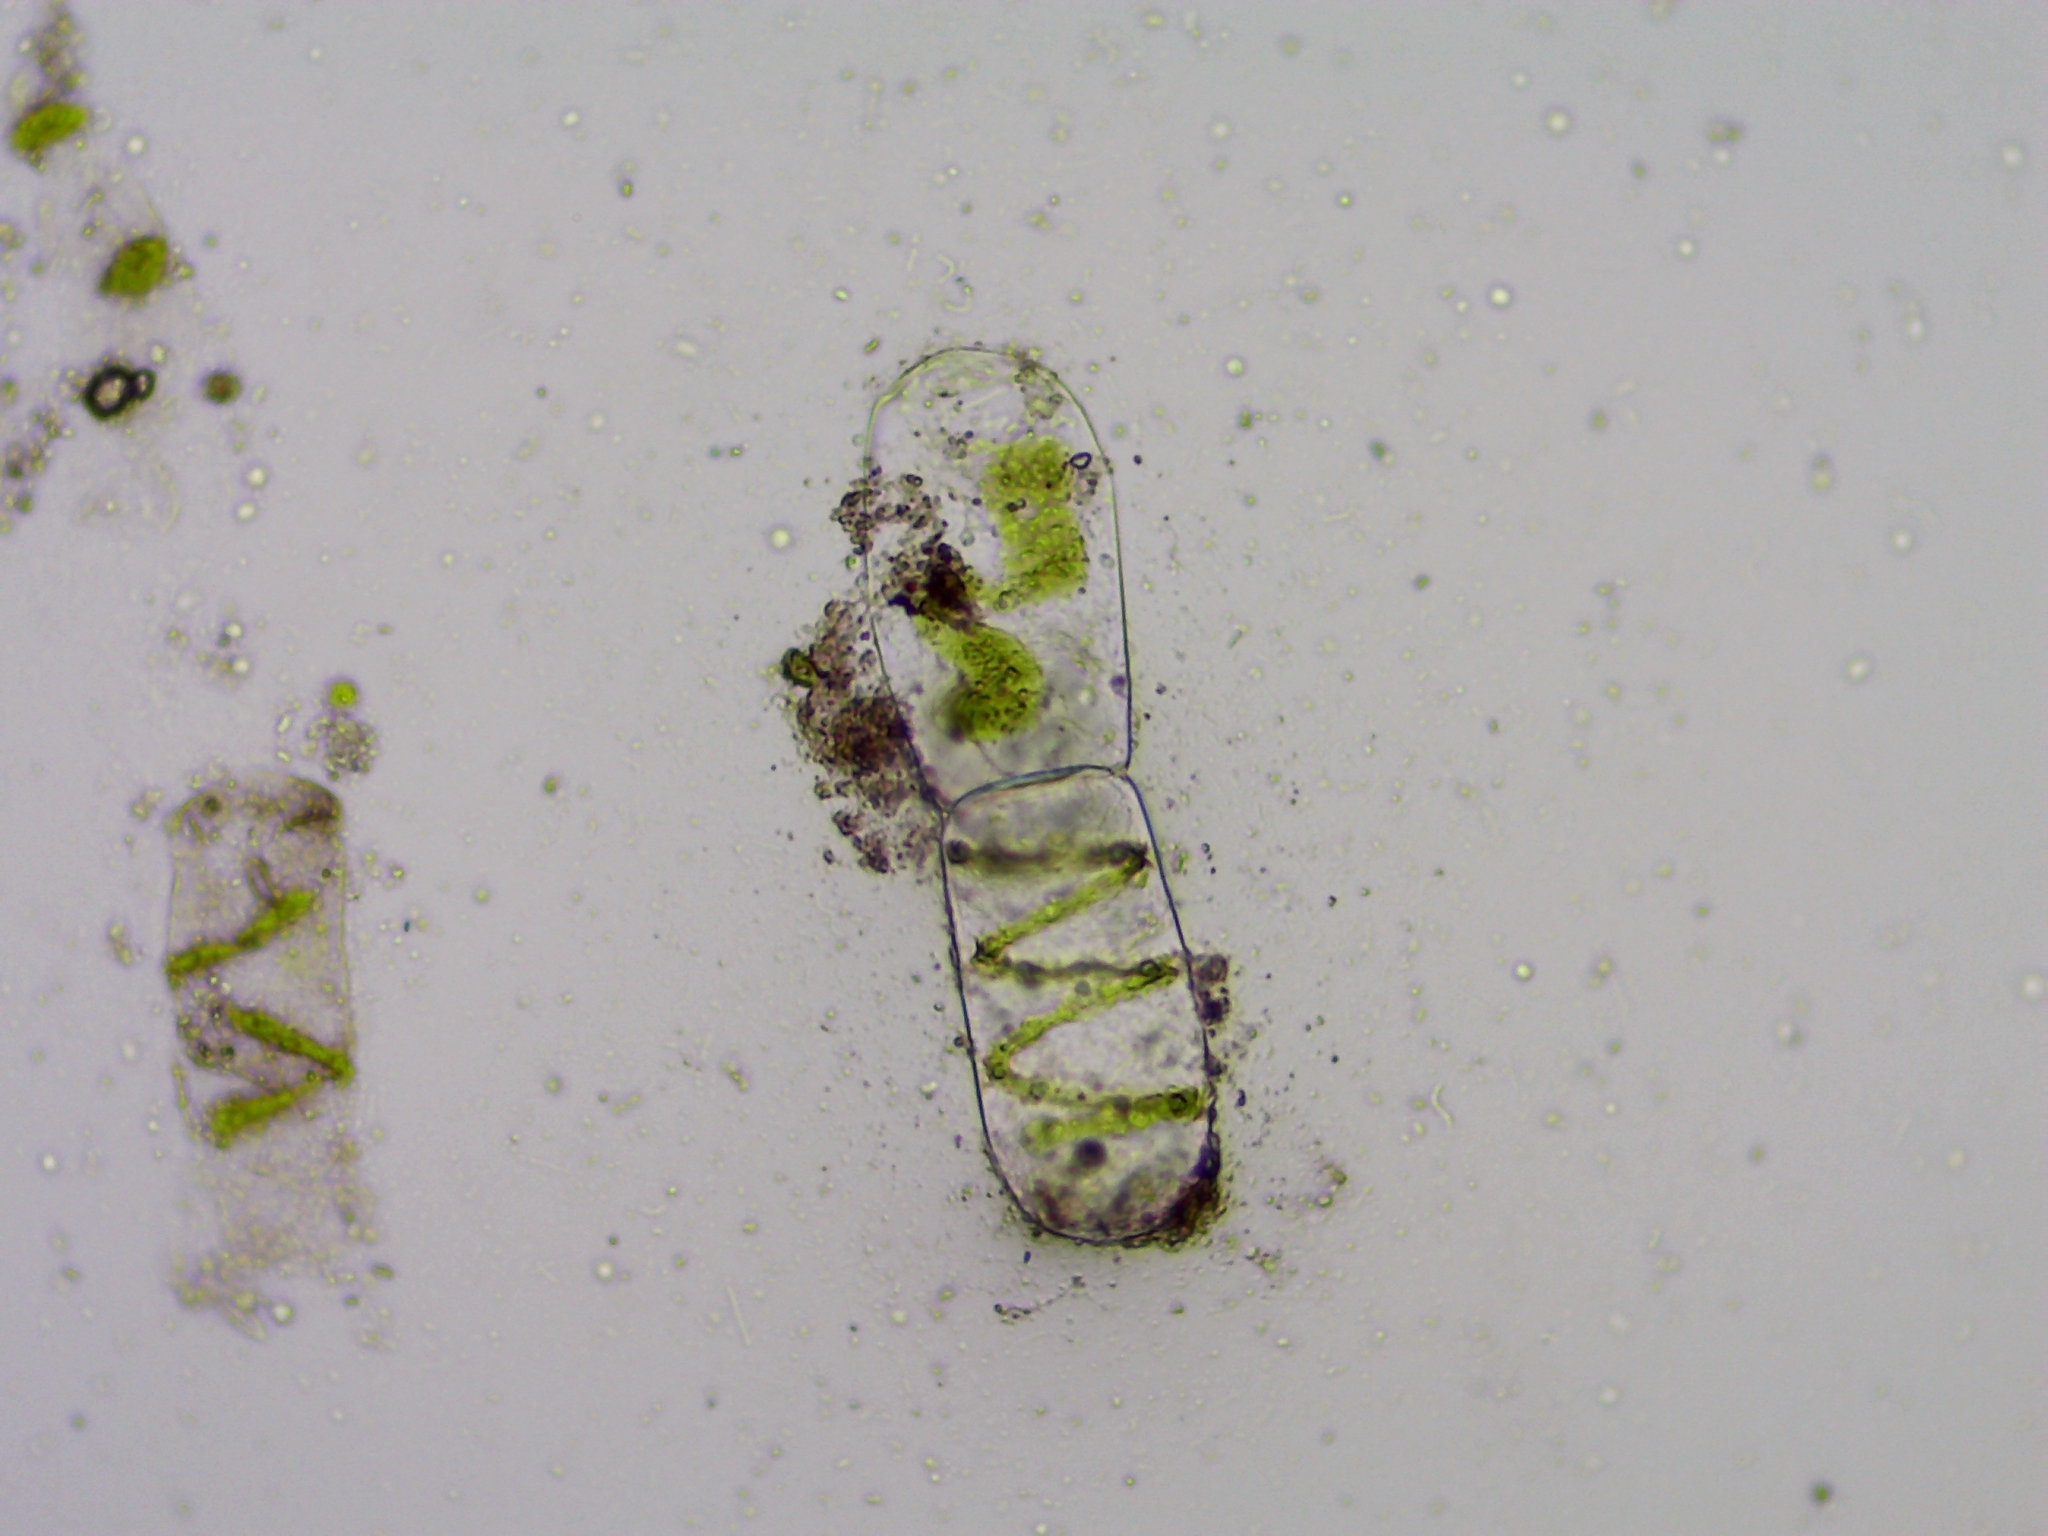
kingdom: Plantae
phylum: Charophyta
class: Zygnematophyceae
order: Zygnematales
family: Zygnemataceae
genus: Spirogyra
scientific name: Spirogyra
